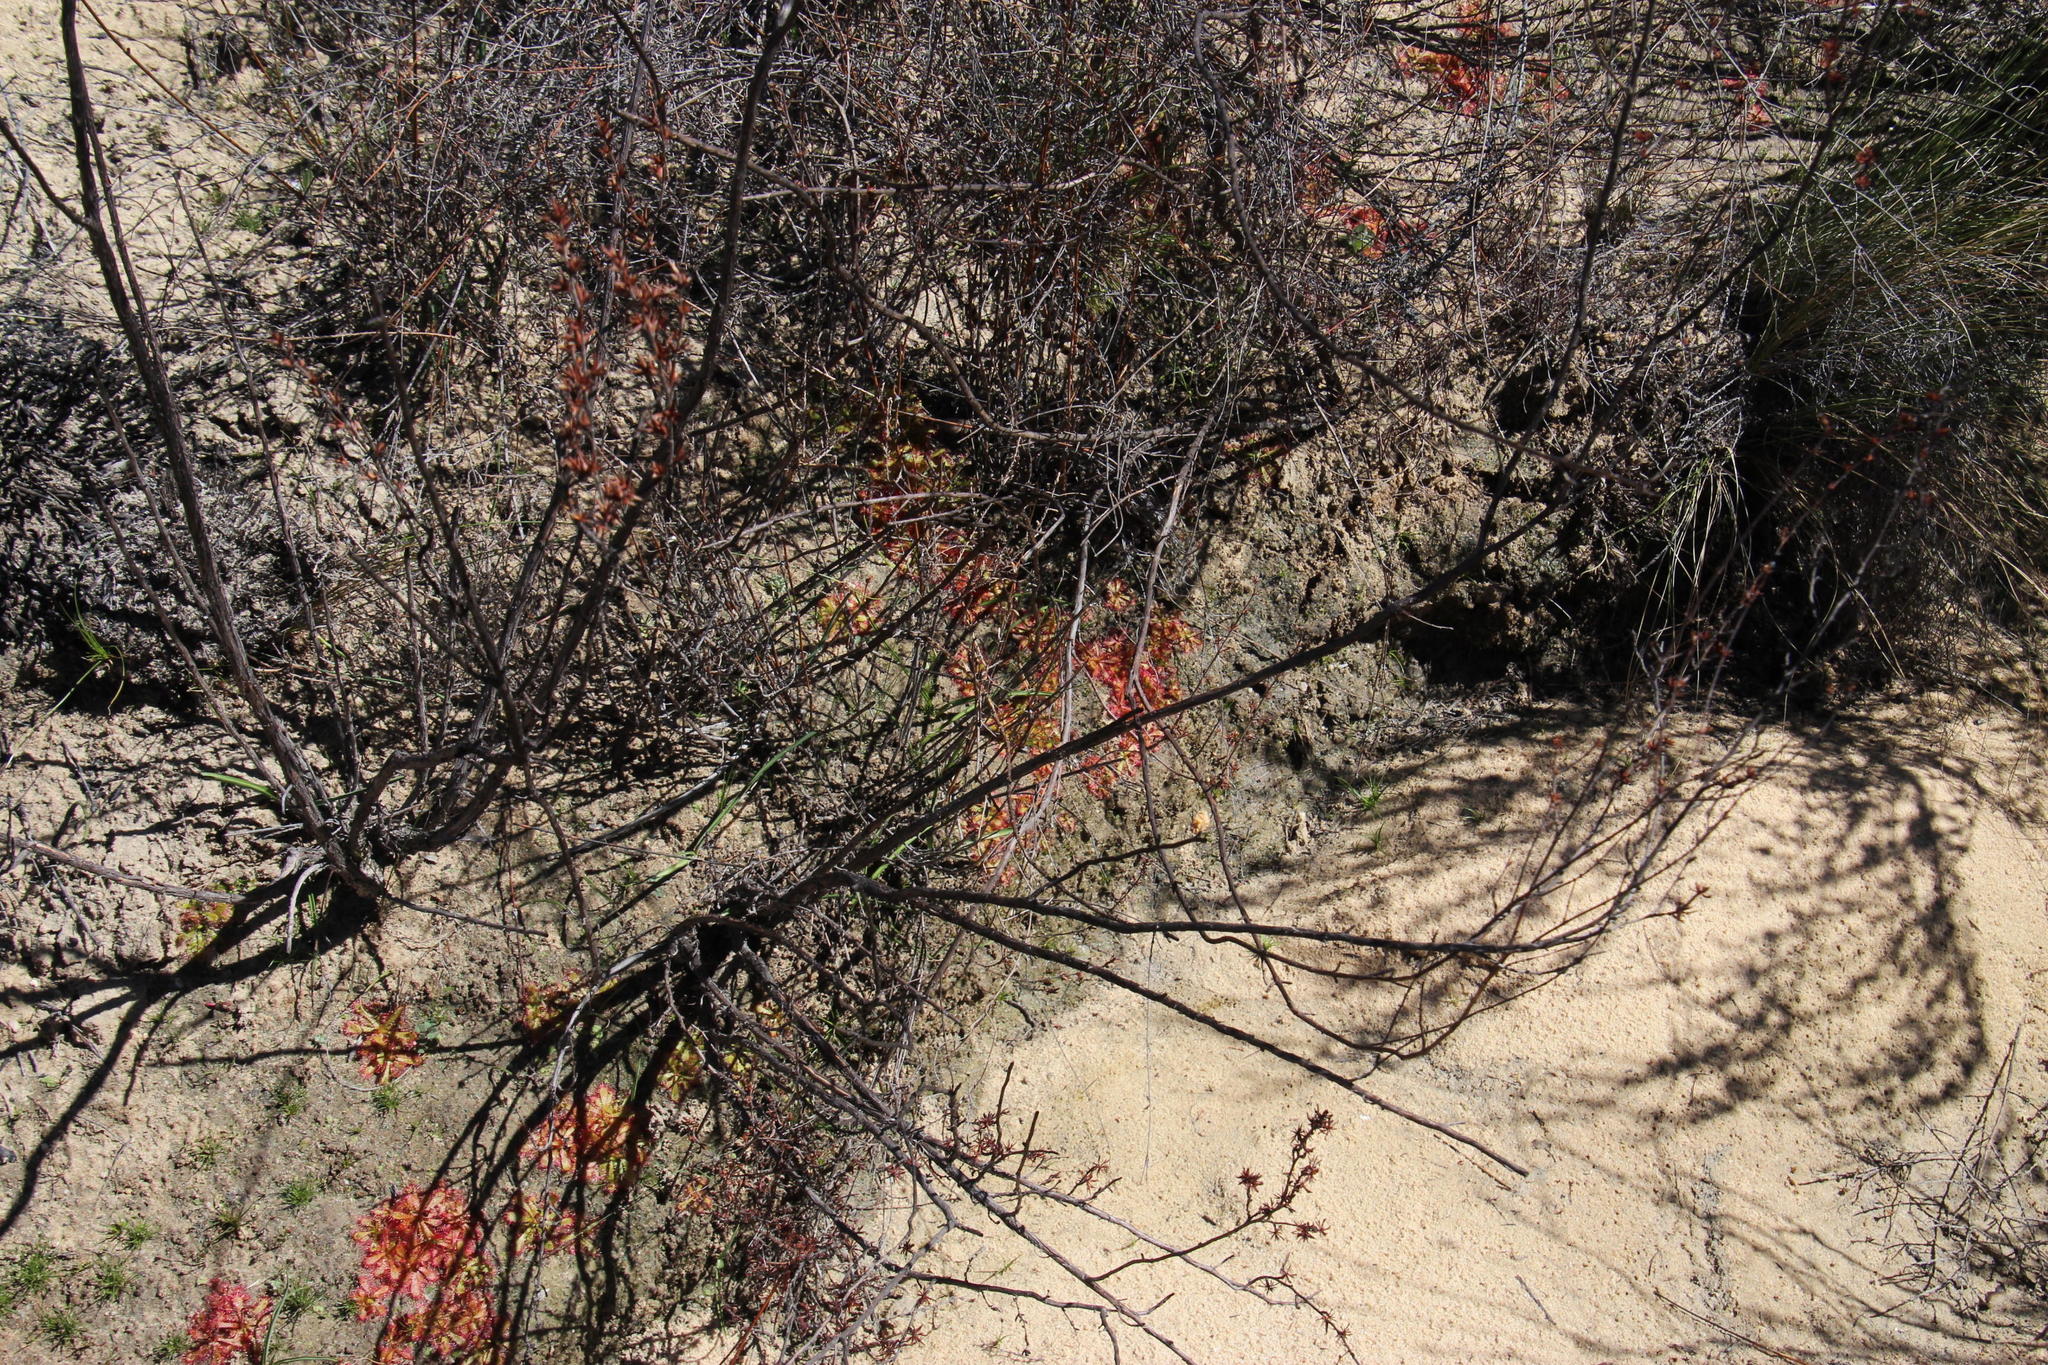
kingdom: Plantae
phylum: Tracheophyta
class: Magnoliopsida
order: Caryophyllales
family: Droseraceae
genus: Drosera
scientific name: Drosera trinervia
